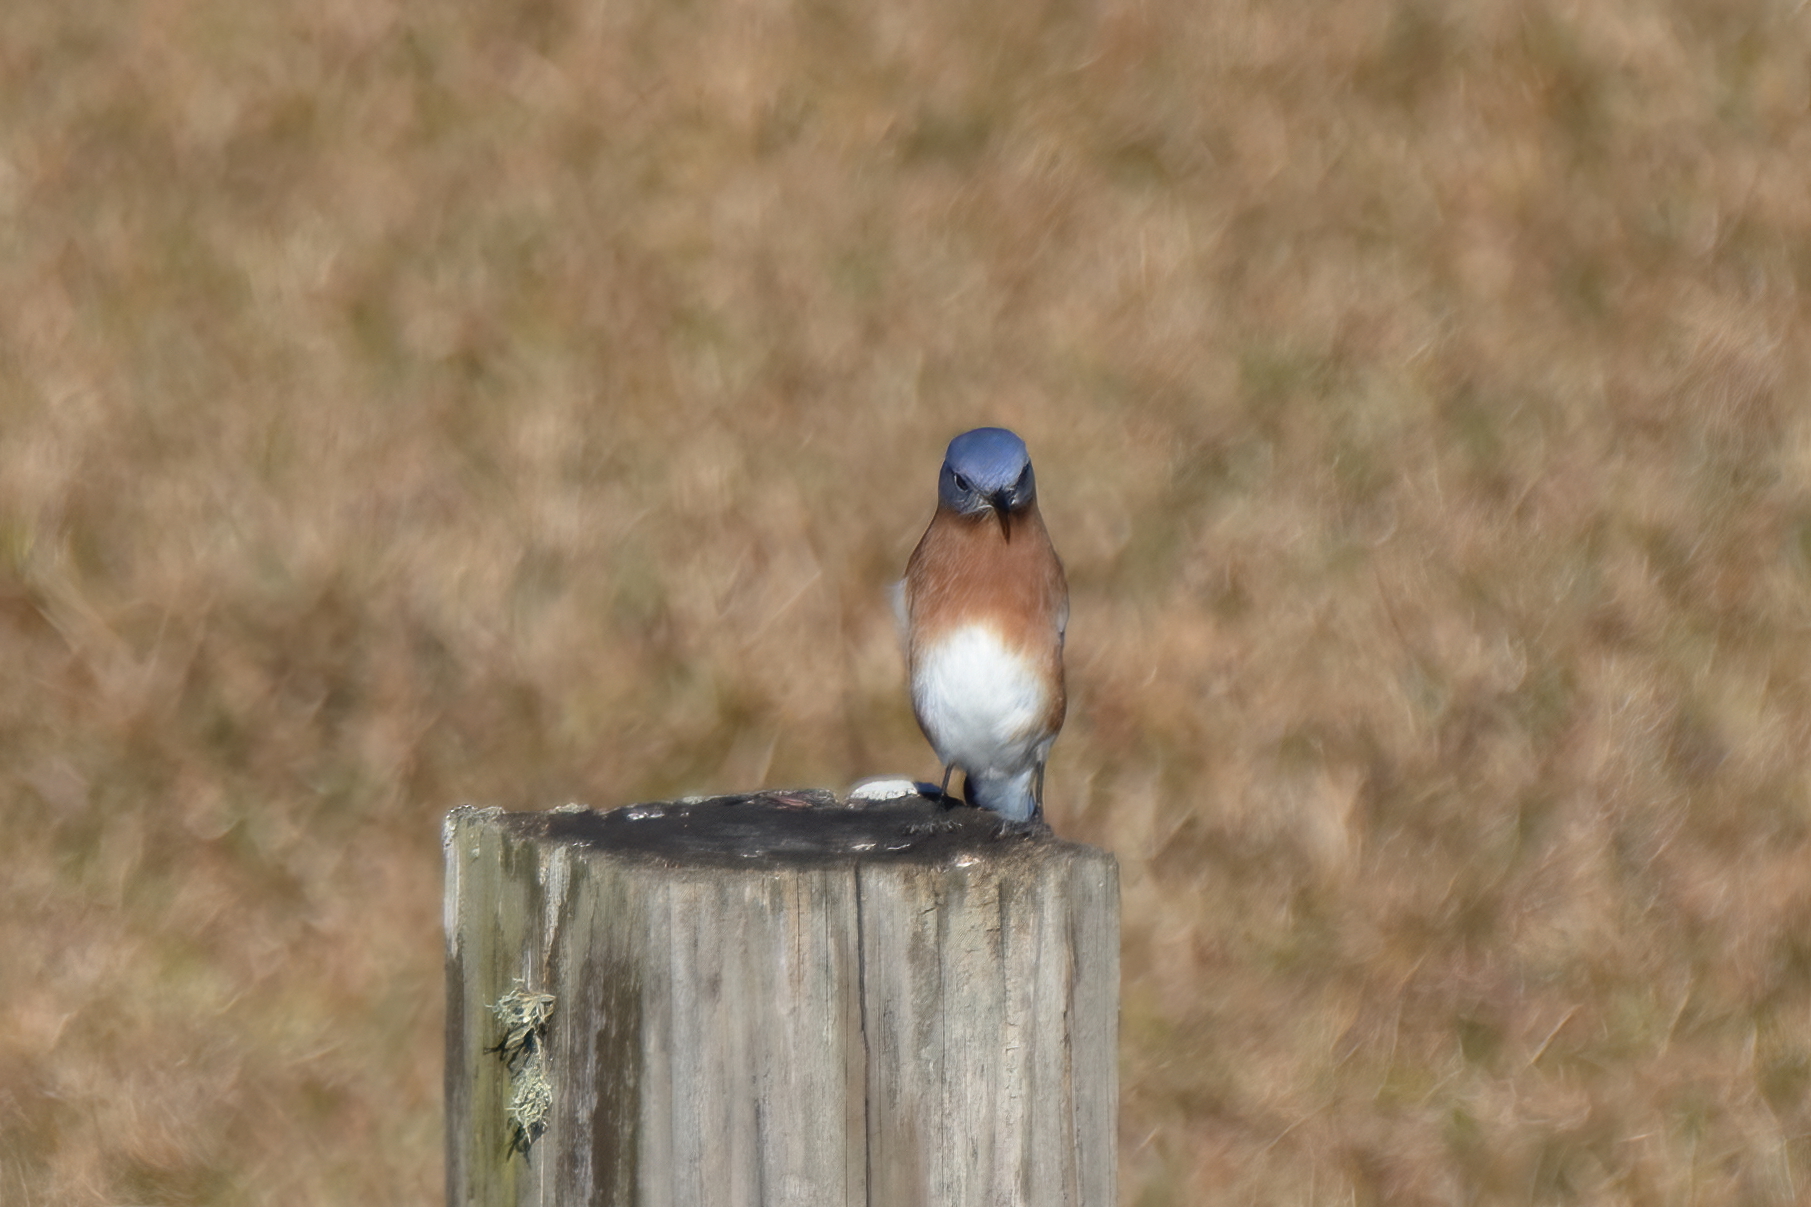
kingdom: Animalia
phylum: Chordata
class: Aves
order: Passeriformes
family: Turdidae
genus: Sialia
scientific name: Sialia sialis
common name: Eastern bluebird
